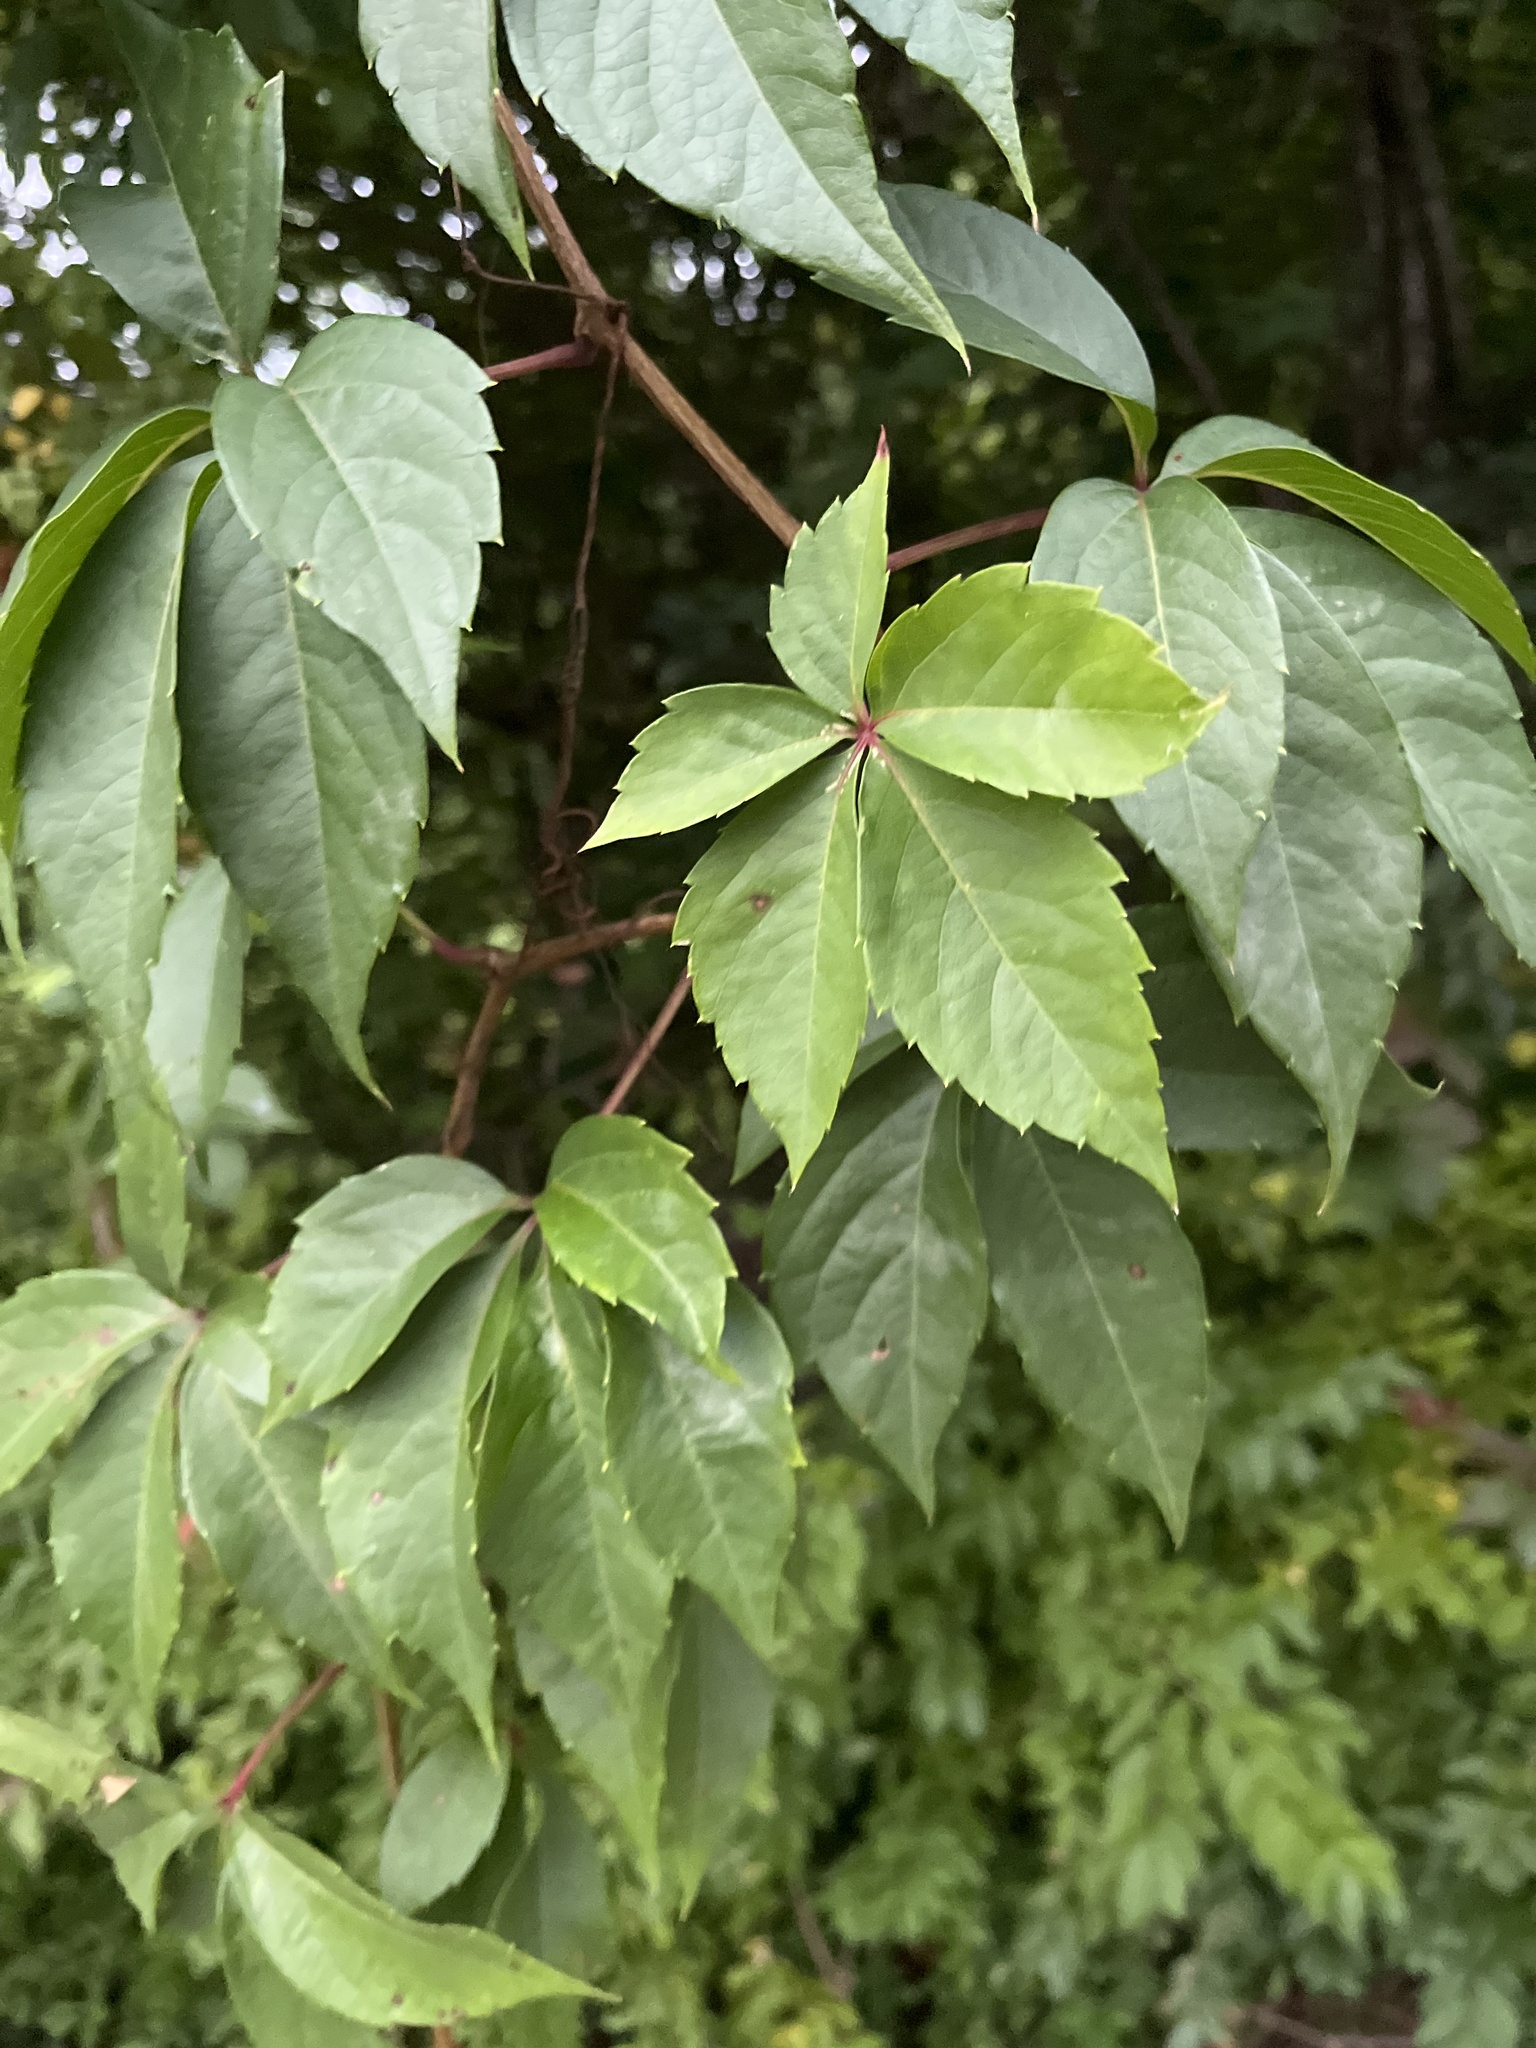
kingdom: Plantae
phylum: Tracheophyta
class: Magnoliopsida
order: Vitales
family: Vitaceae
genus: Parthenocissus
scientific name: Parthenocissus quinquefolia
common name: Virginia-creeper
